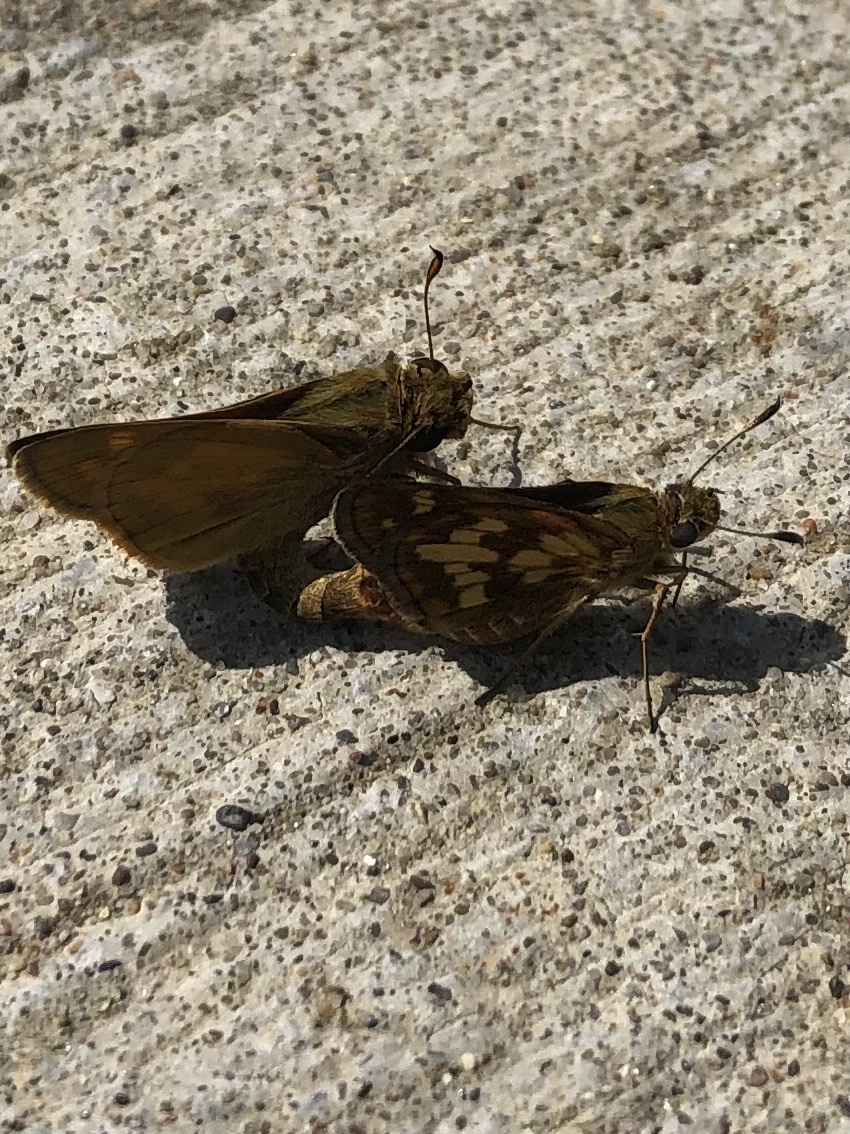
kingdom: Animalia
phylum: Arthropoda
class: Insecta
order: Lepidoptera
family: Hesperiidae
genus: Polites
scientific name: Polites coras
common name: Peck's skipper
